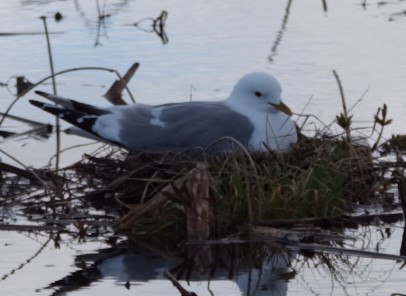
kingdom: Animalia
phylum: Chordata
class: Aves
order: Charadriiformes
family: Laridae
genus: Larus
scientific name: Larus brachyrhynchus
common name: Short-billed gull
